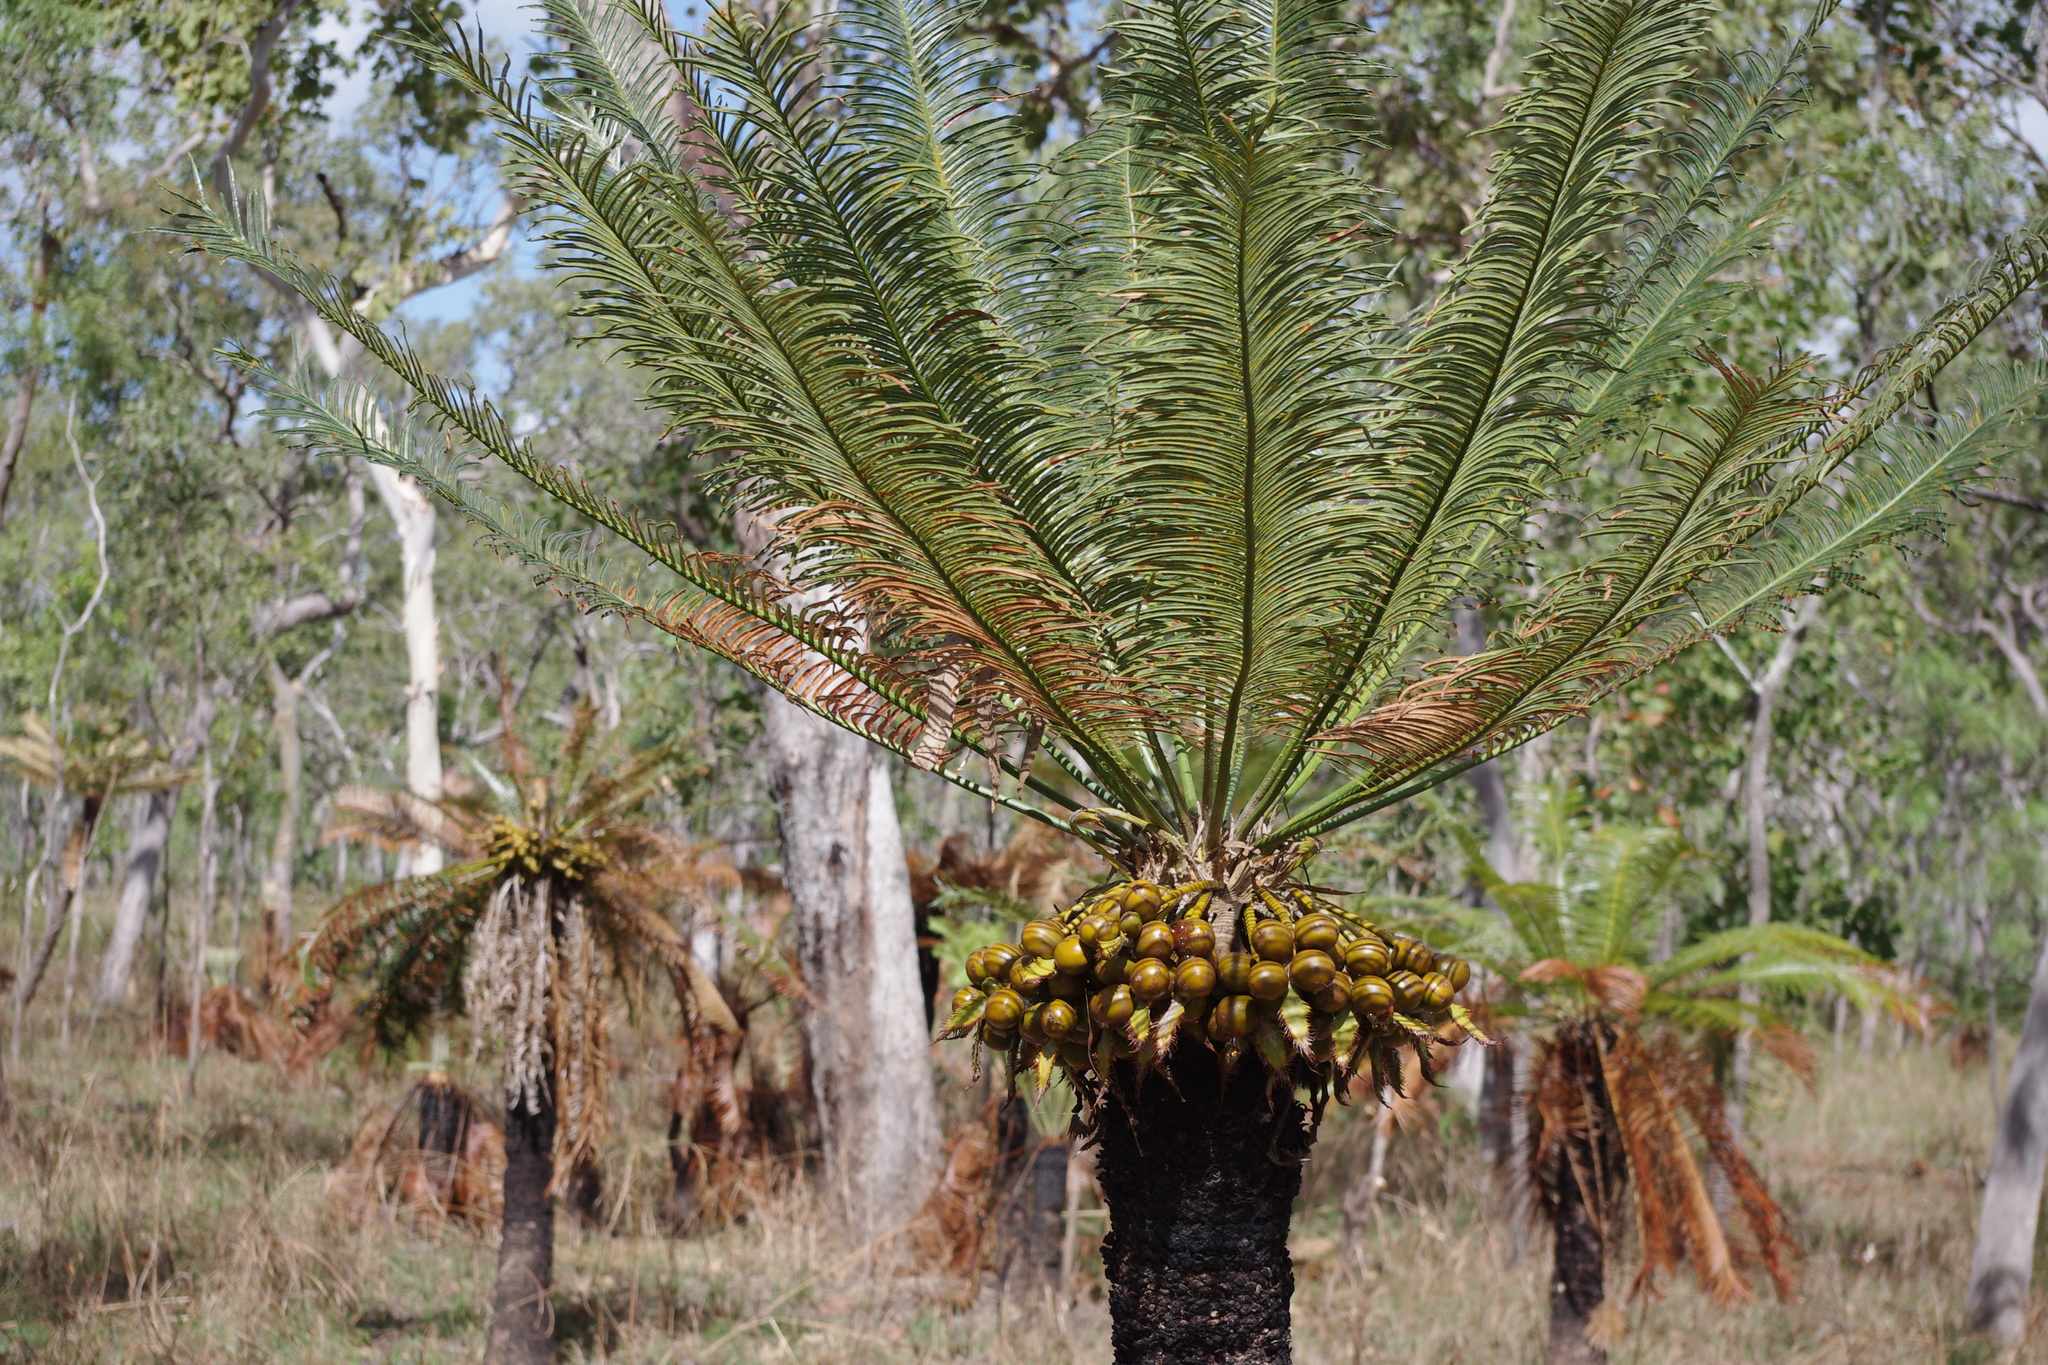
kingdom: Plantae
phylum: Tracheophyta
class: Cycadopsida
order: Cycadales
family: Cycadaceae
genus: Cycas
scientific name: Cycas yorkiana
